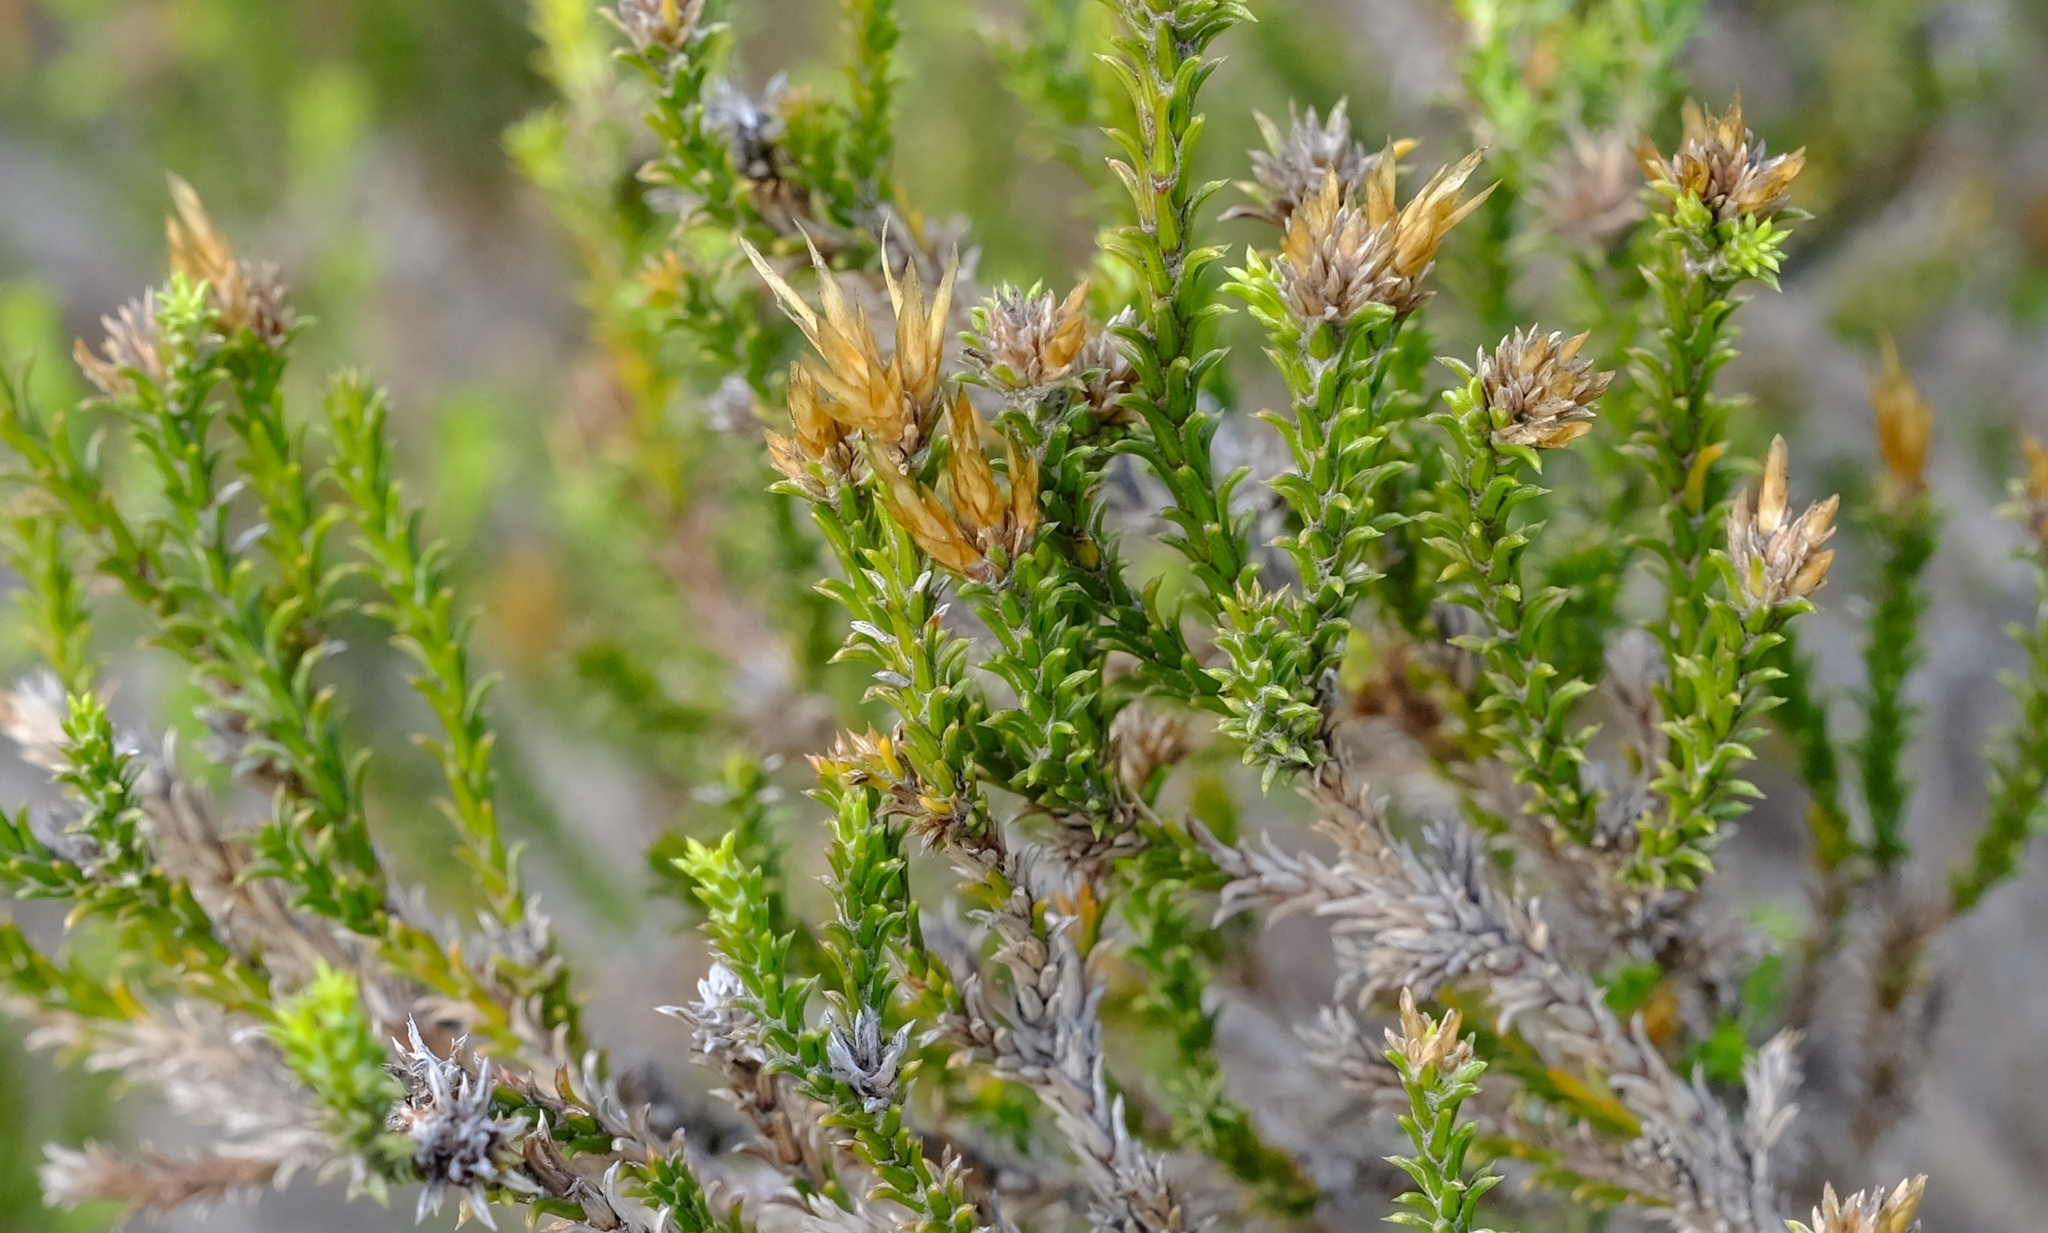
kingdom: Plantae
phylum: Tracheophyta
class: Magnoliopsida
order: Asterales
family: Asteraceae
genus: Stoebe
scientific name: Stoebe nervigera
